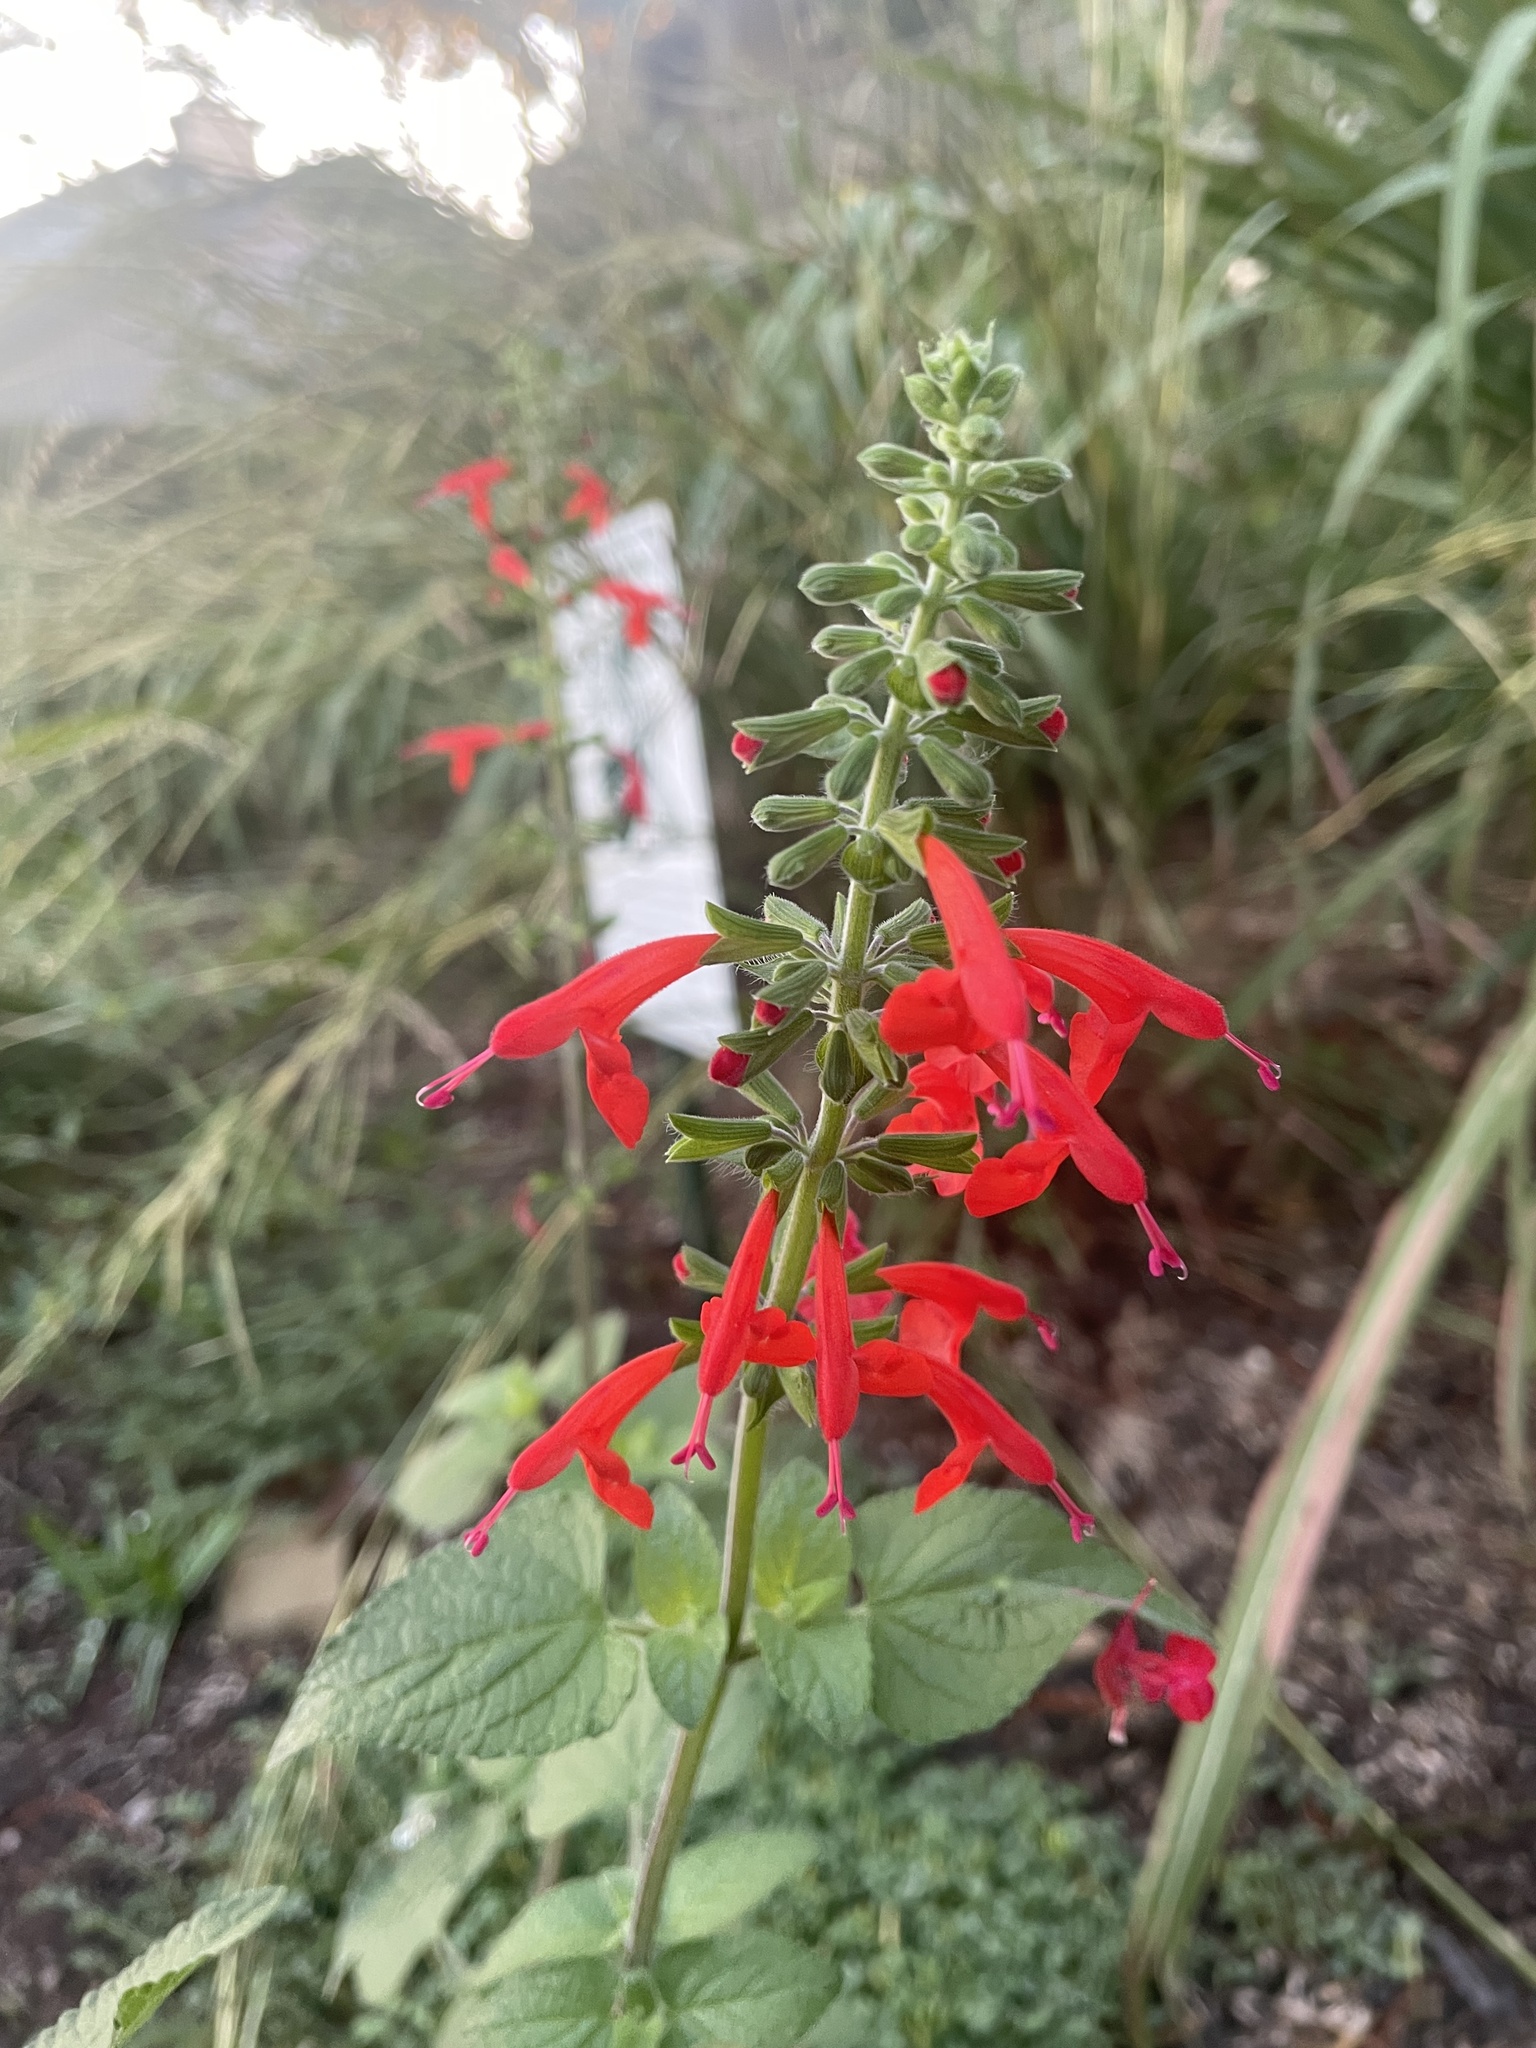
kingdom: Plantae
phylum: Tracheophyta
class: Magnoliopsida
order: Lamiales
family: Lamiaceae
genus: Salvia
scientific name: Salvia coccinea
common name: Blood sage
